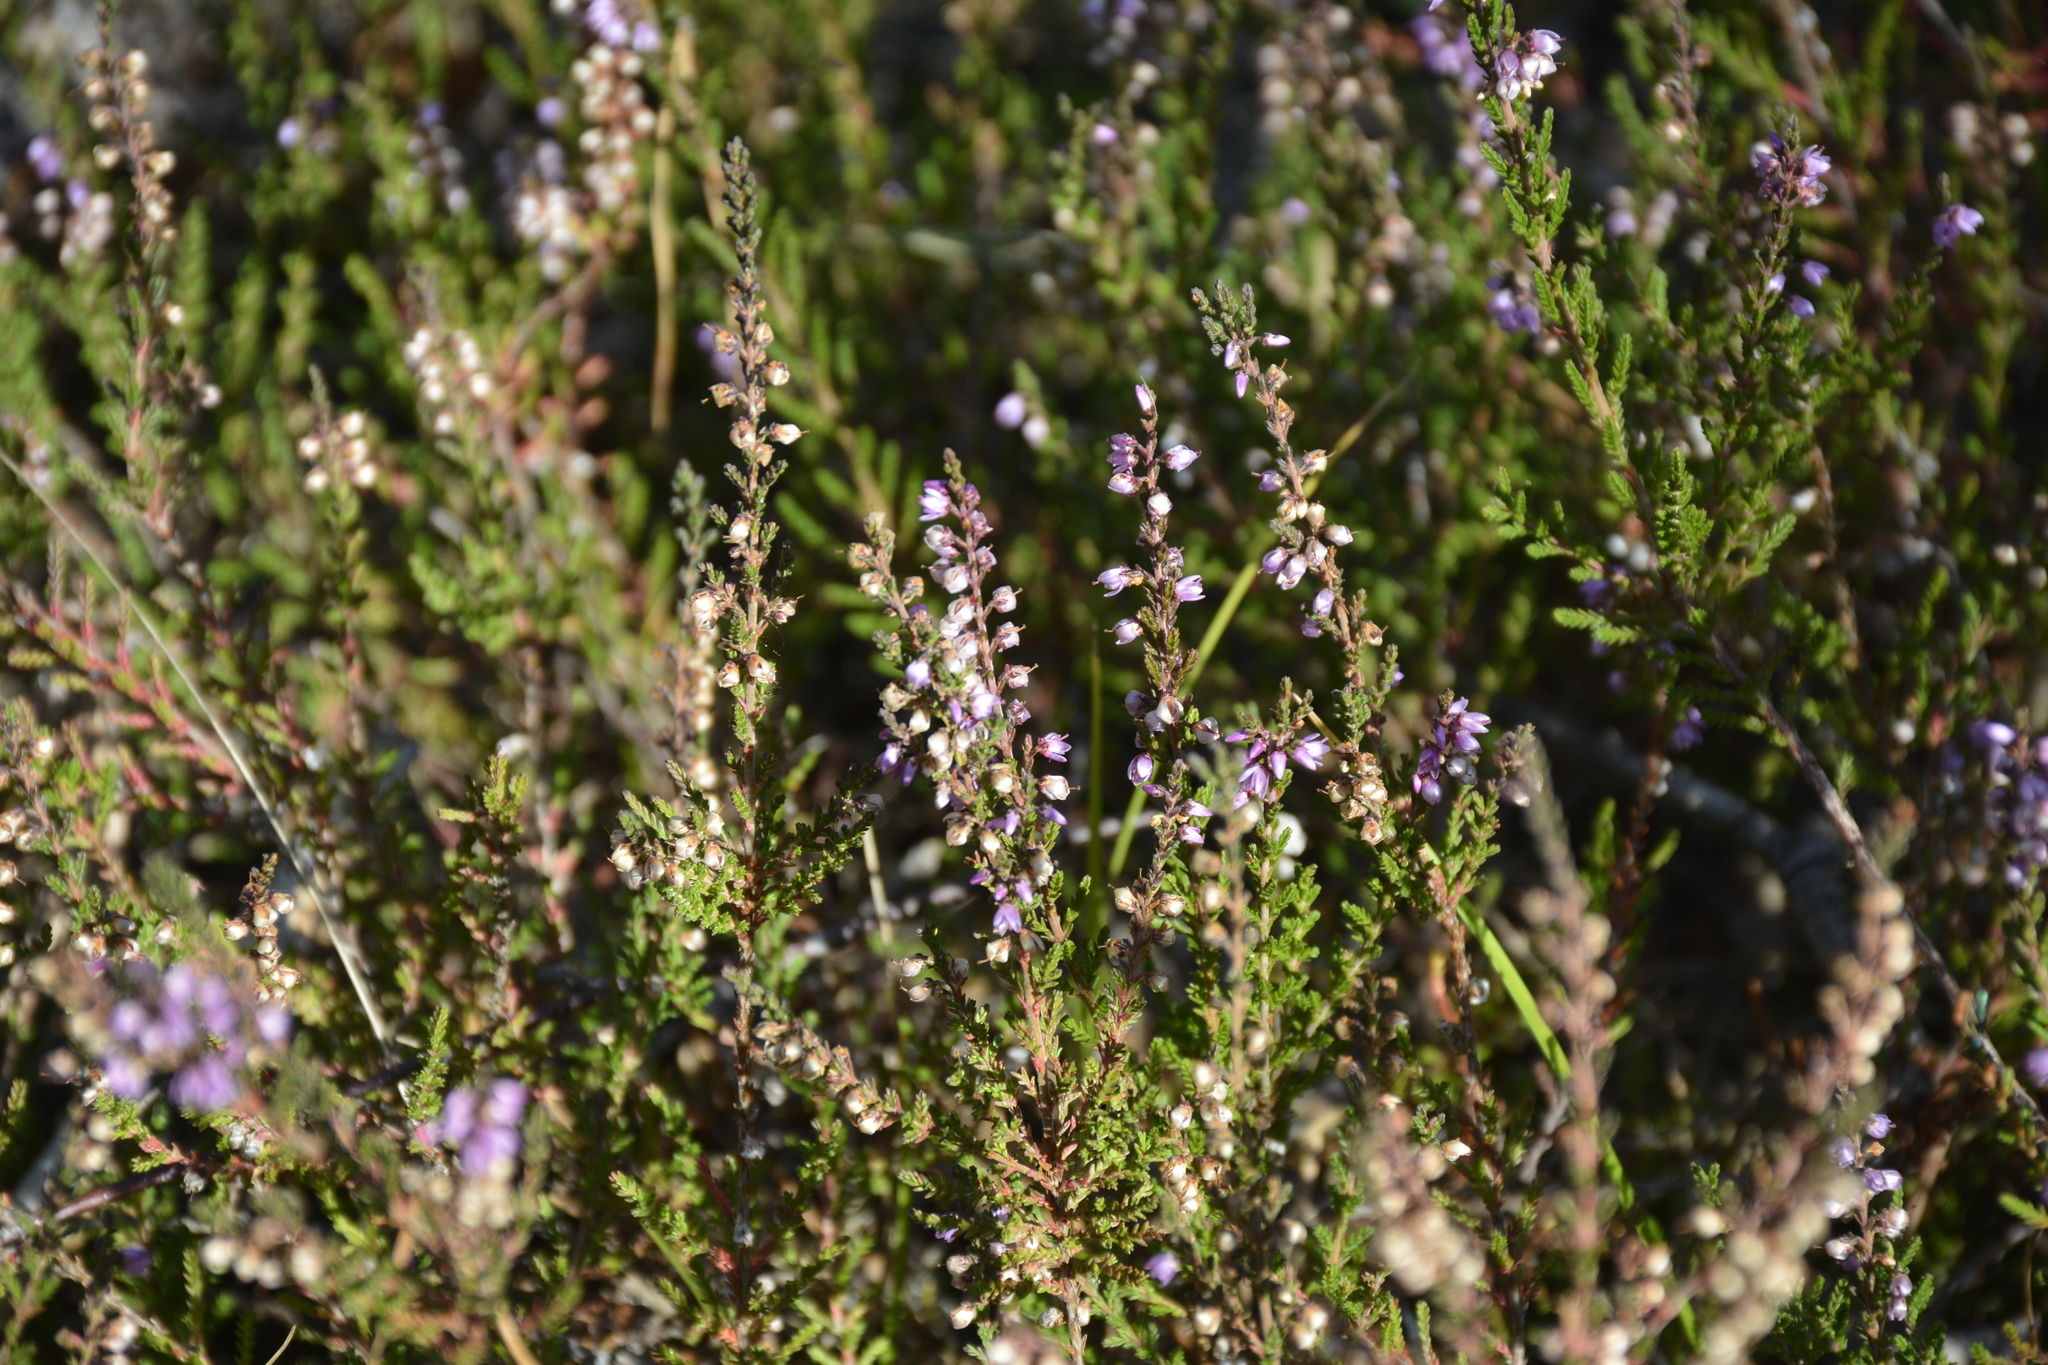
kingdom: Plantae
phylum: Tracheophyta
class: Magnoliopsida
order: Ericales
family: Ericaceae
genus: Calluna
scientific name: Calluna vulgaris
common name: Heather
